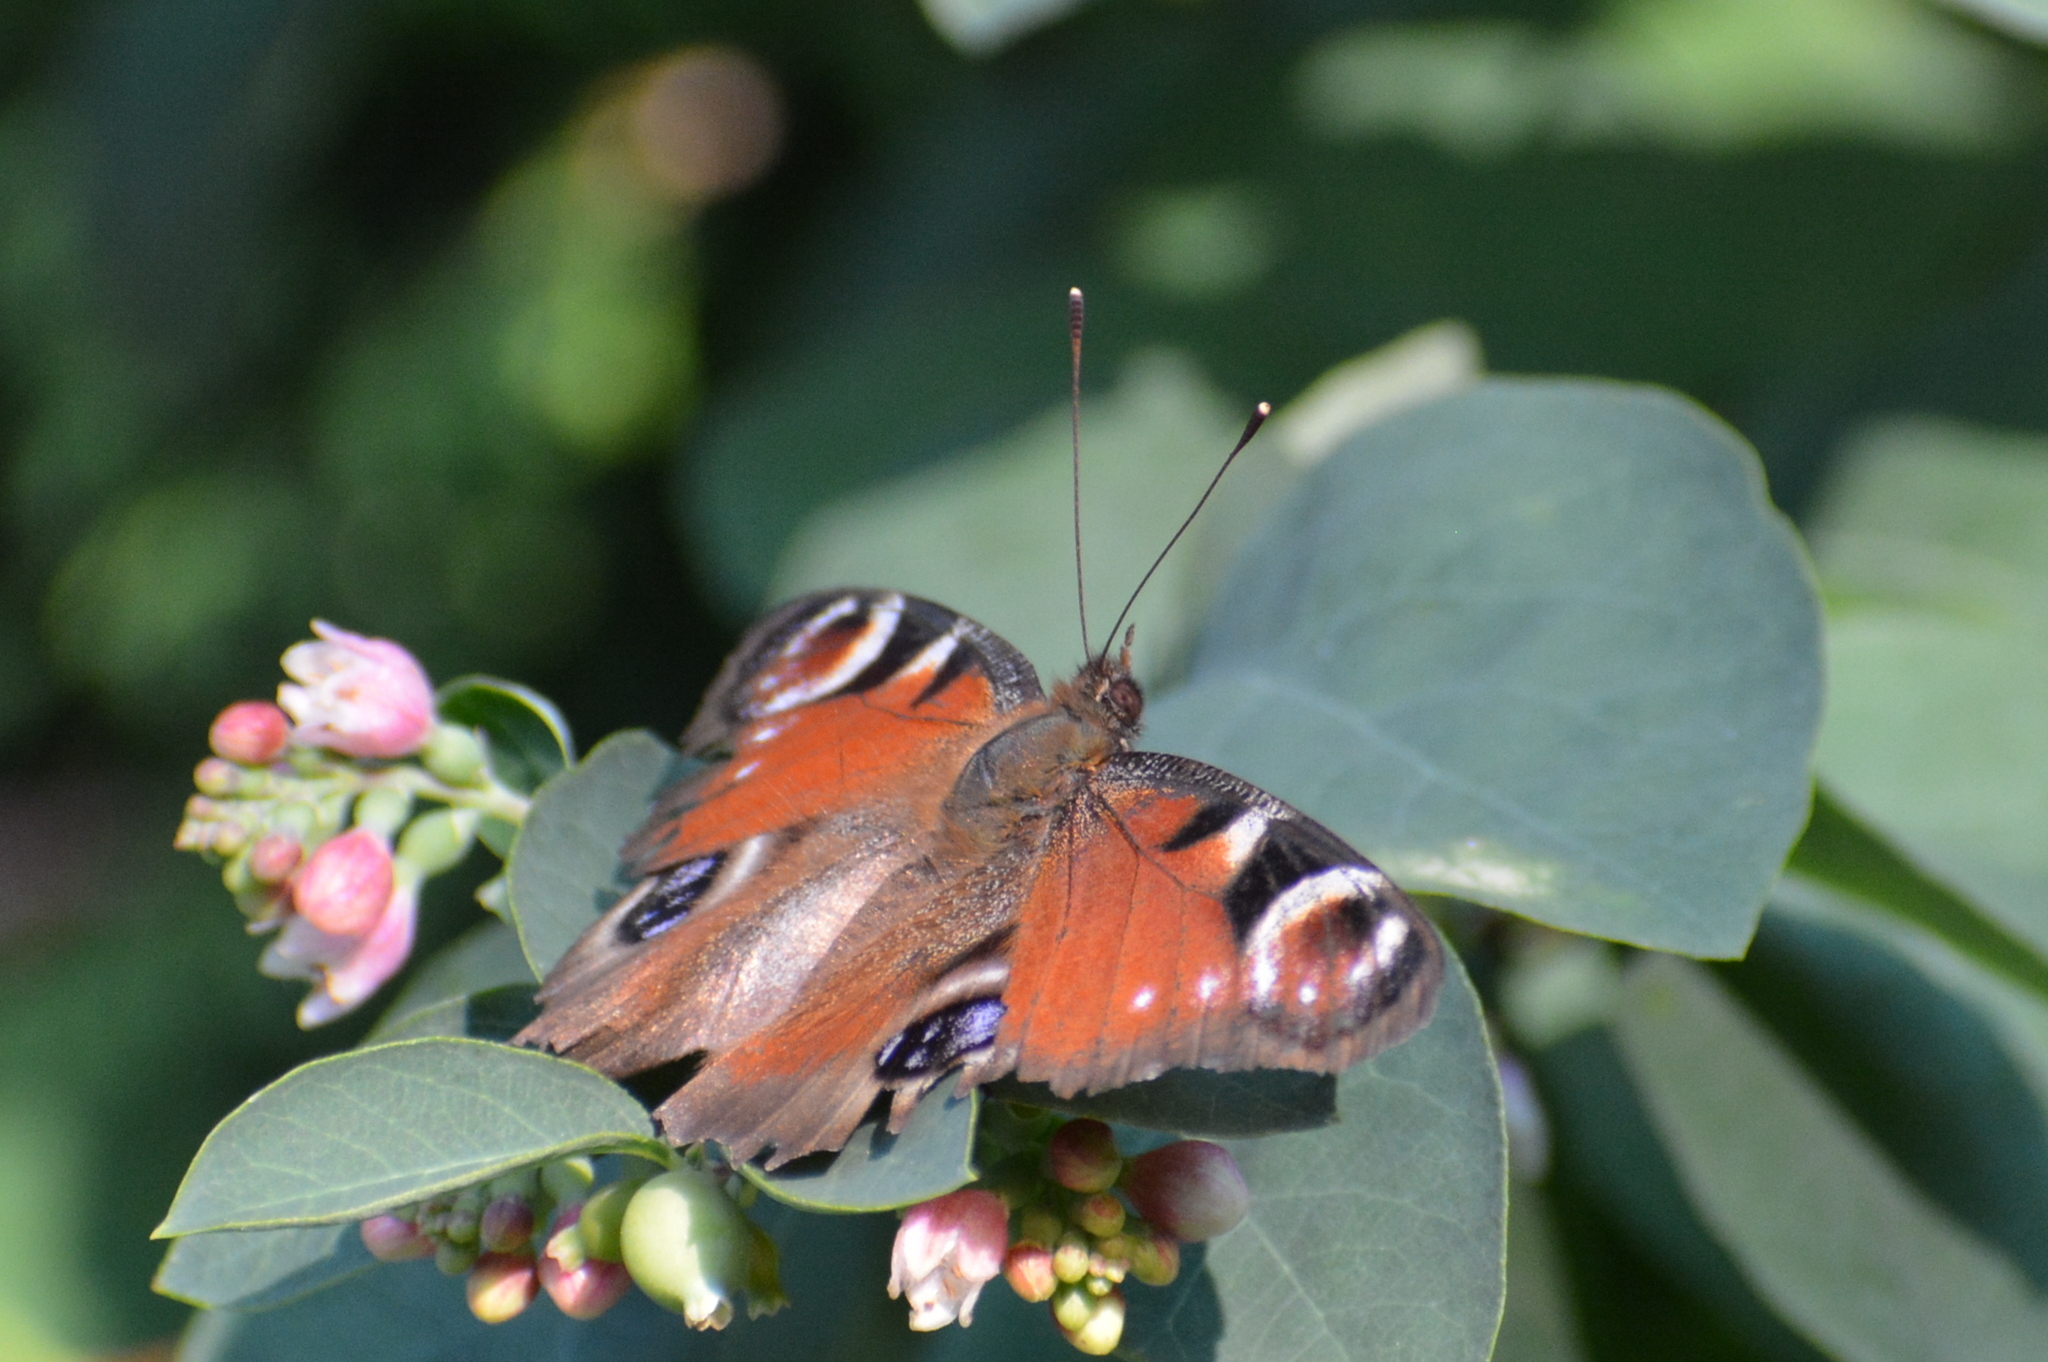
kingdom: Animalia
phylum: Arthropoda
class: Insecta
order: Lepidoptera
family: Nymphalidae
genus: Aglais
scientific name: Aglais io
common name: Peacock
